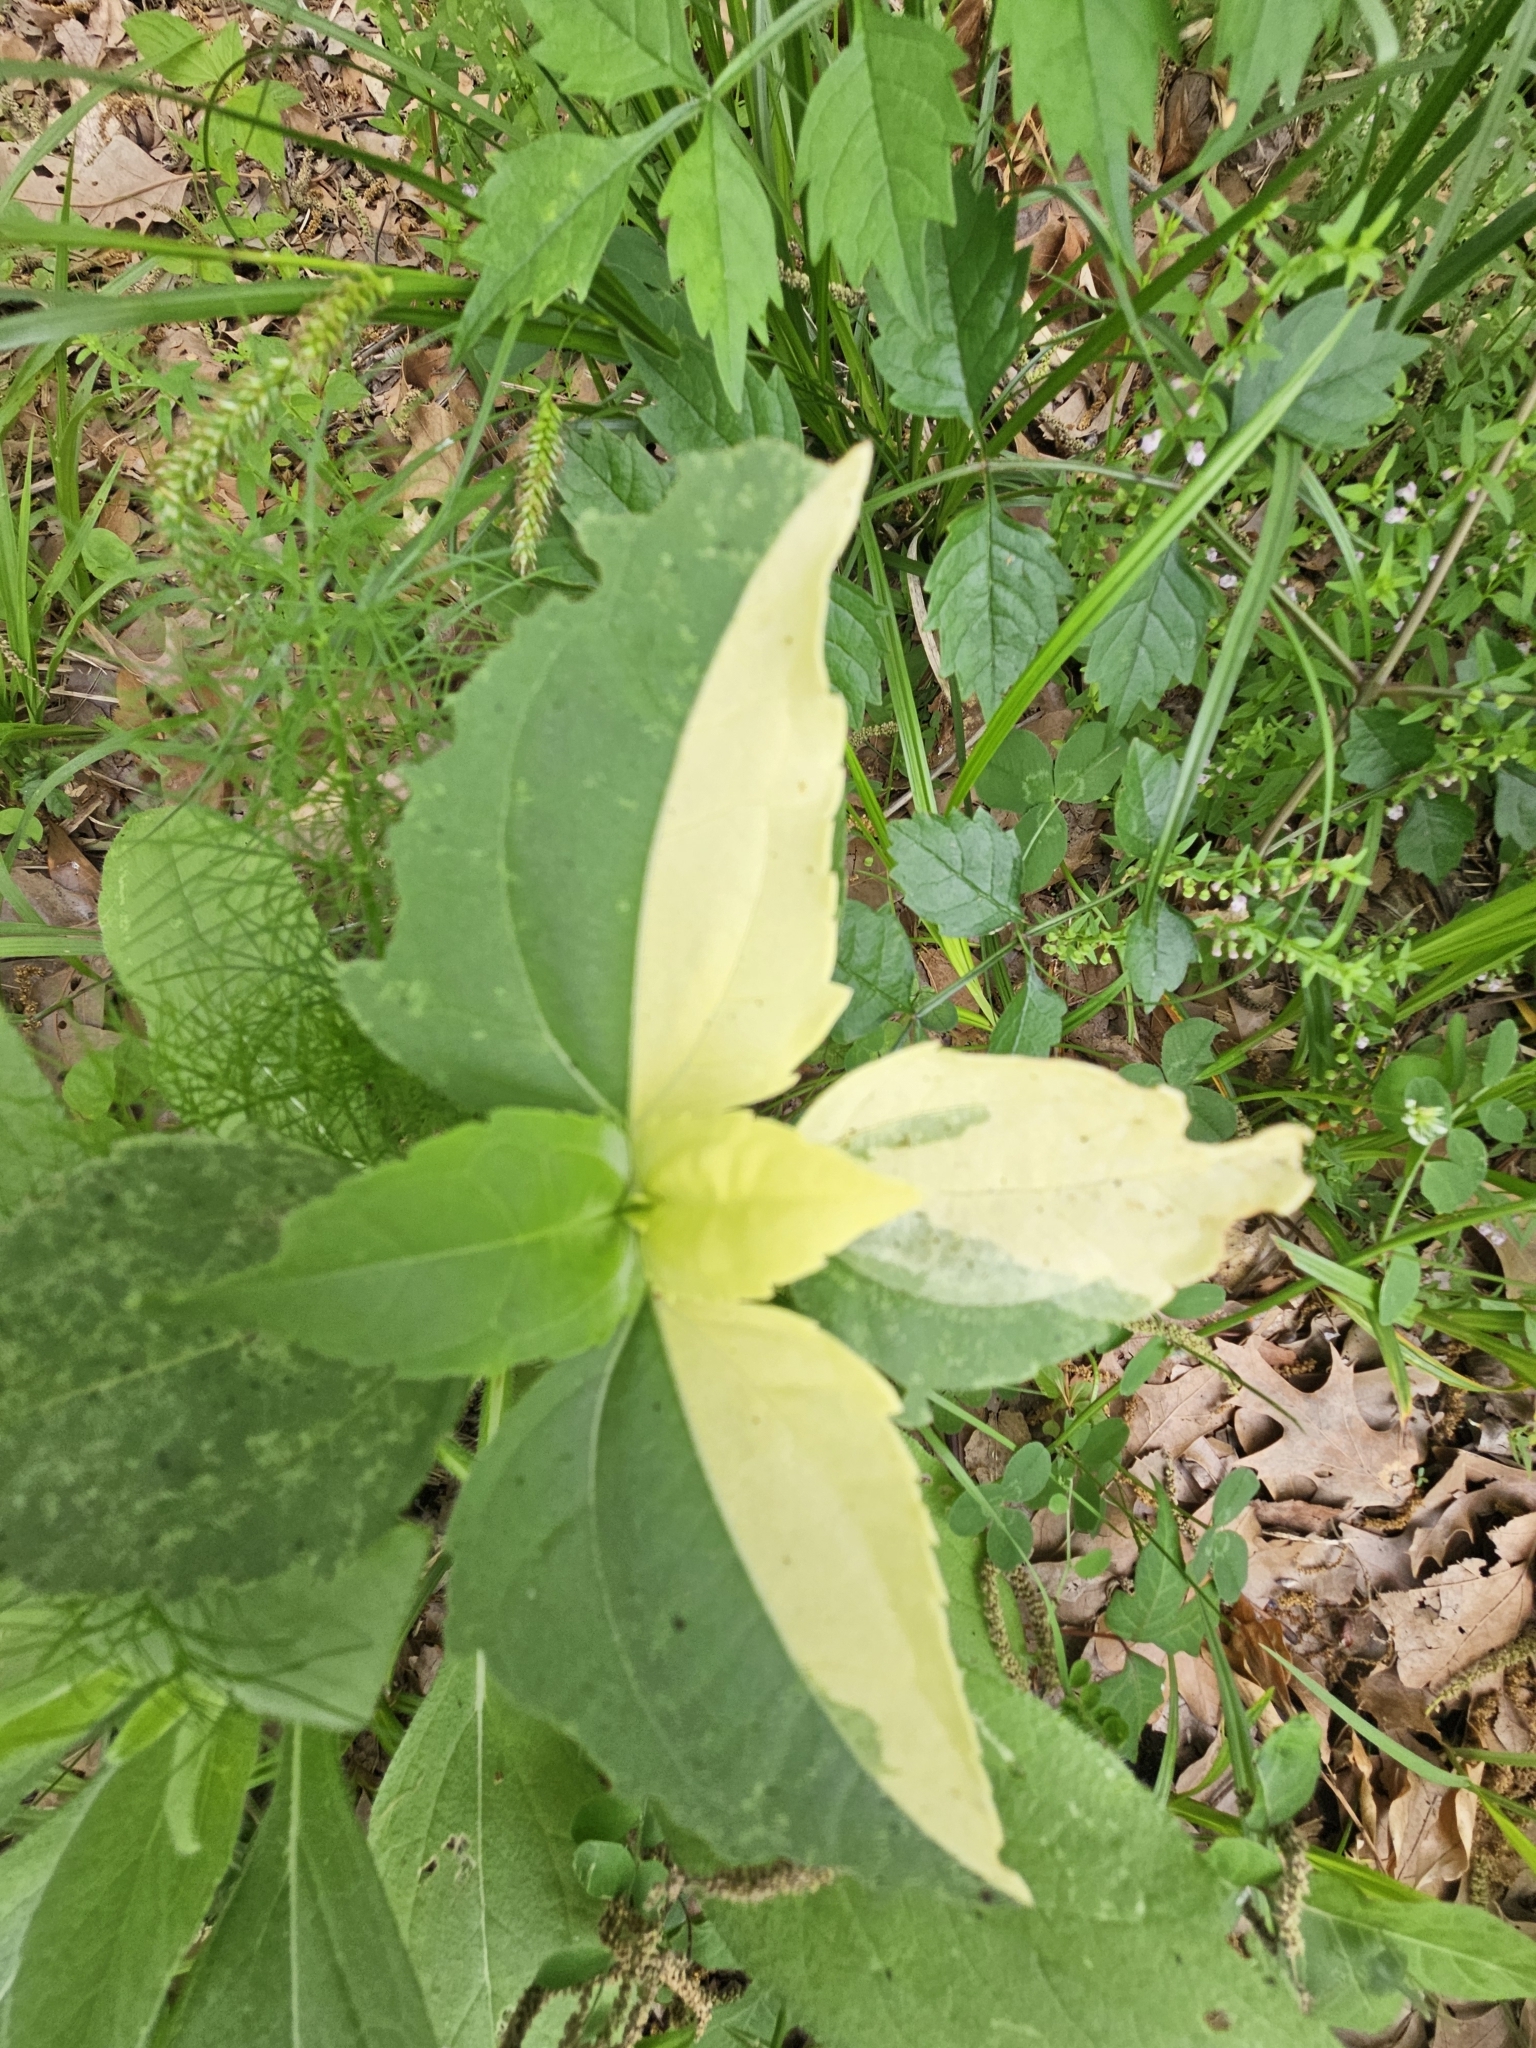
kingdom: Plantae
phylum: Tracheophyta
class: Magnoliopsida
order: Asterales
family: Asteraceae
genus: Iva
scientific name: Iva annua
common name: Marsh-elder
